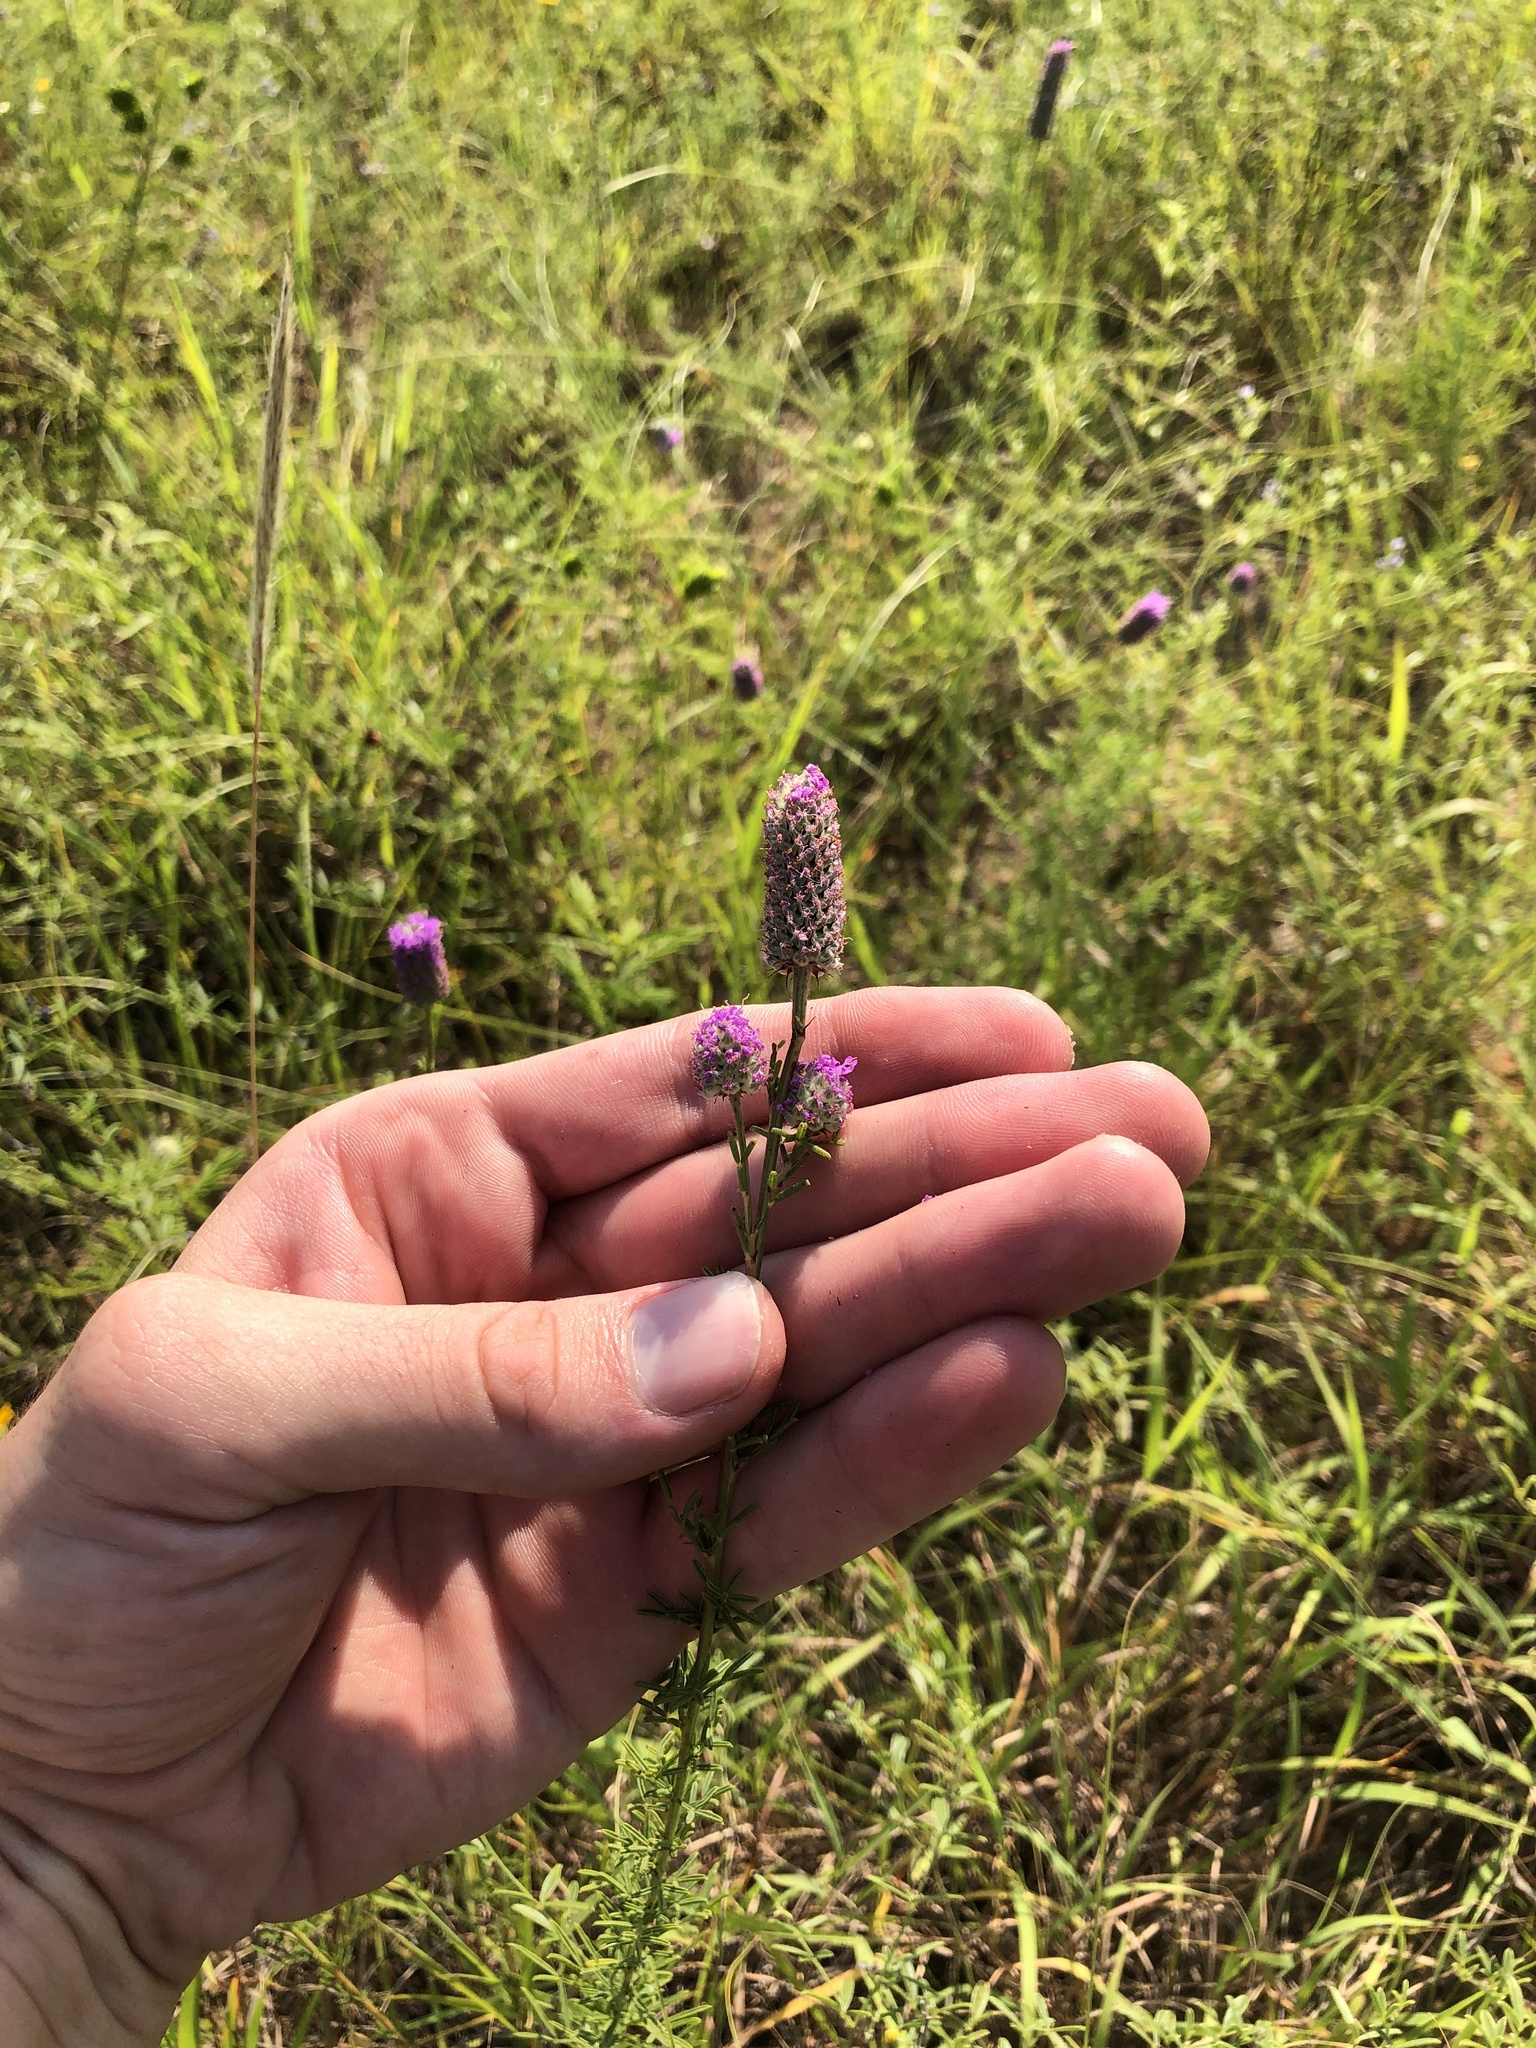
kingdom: Plantae
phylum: Tracheophyta
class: Magnoliopsida
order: Fabales
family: Fabaceae
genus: Dalea
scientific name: Dalea purpurea
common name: Purple prairie-clover
